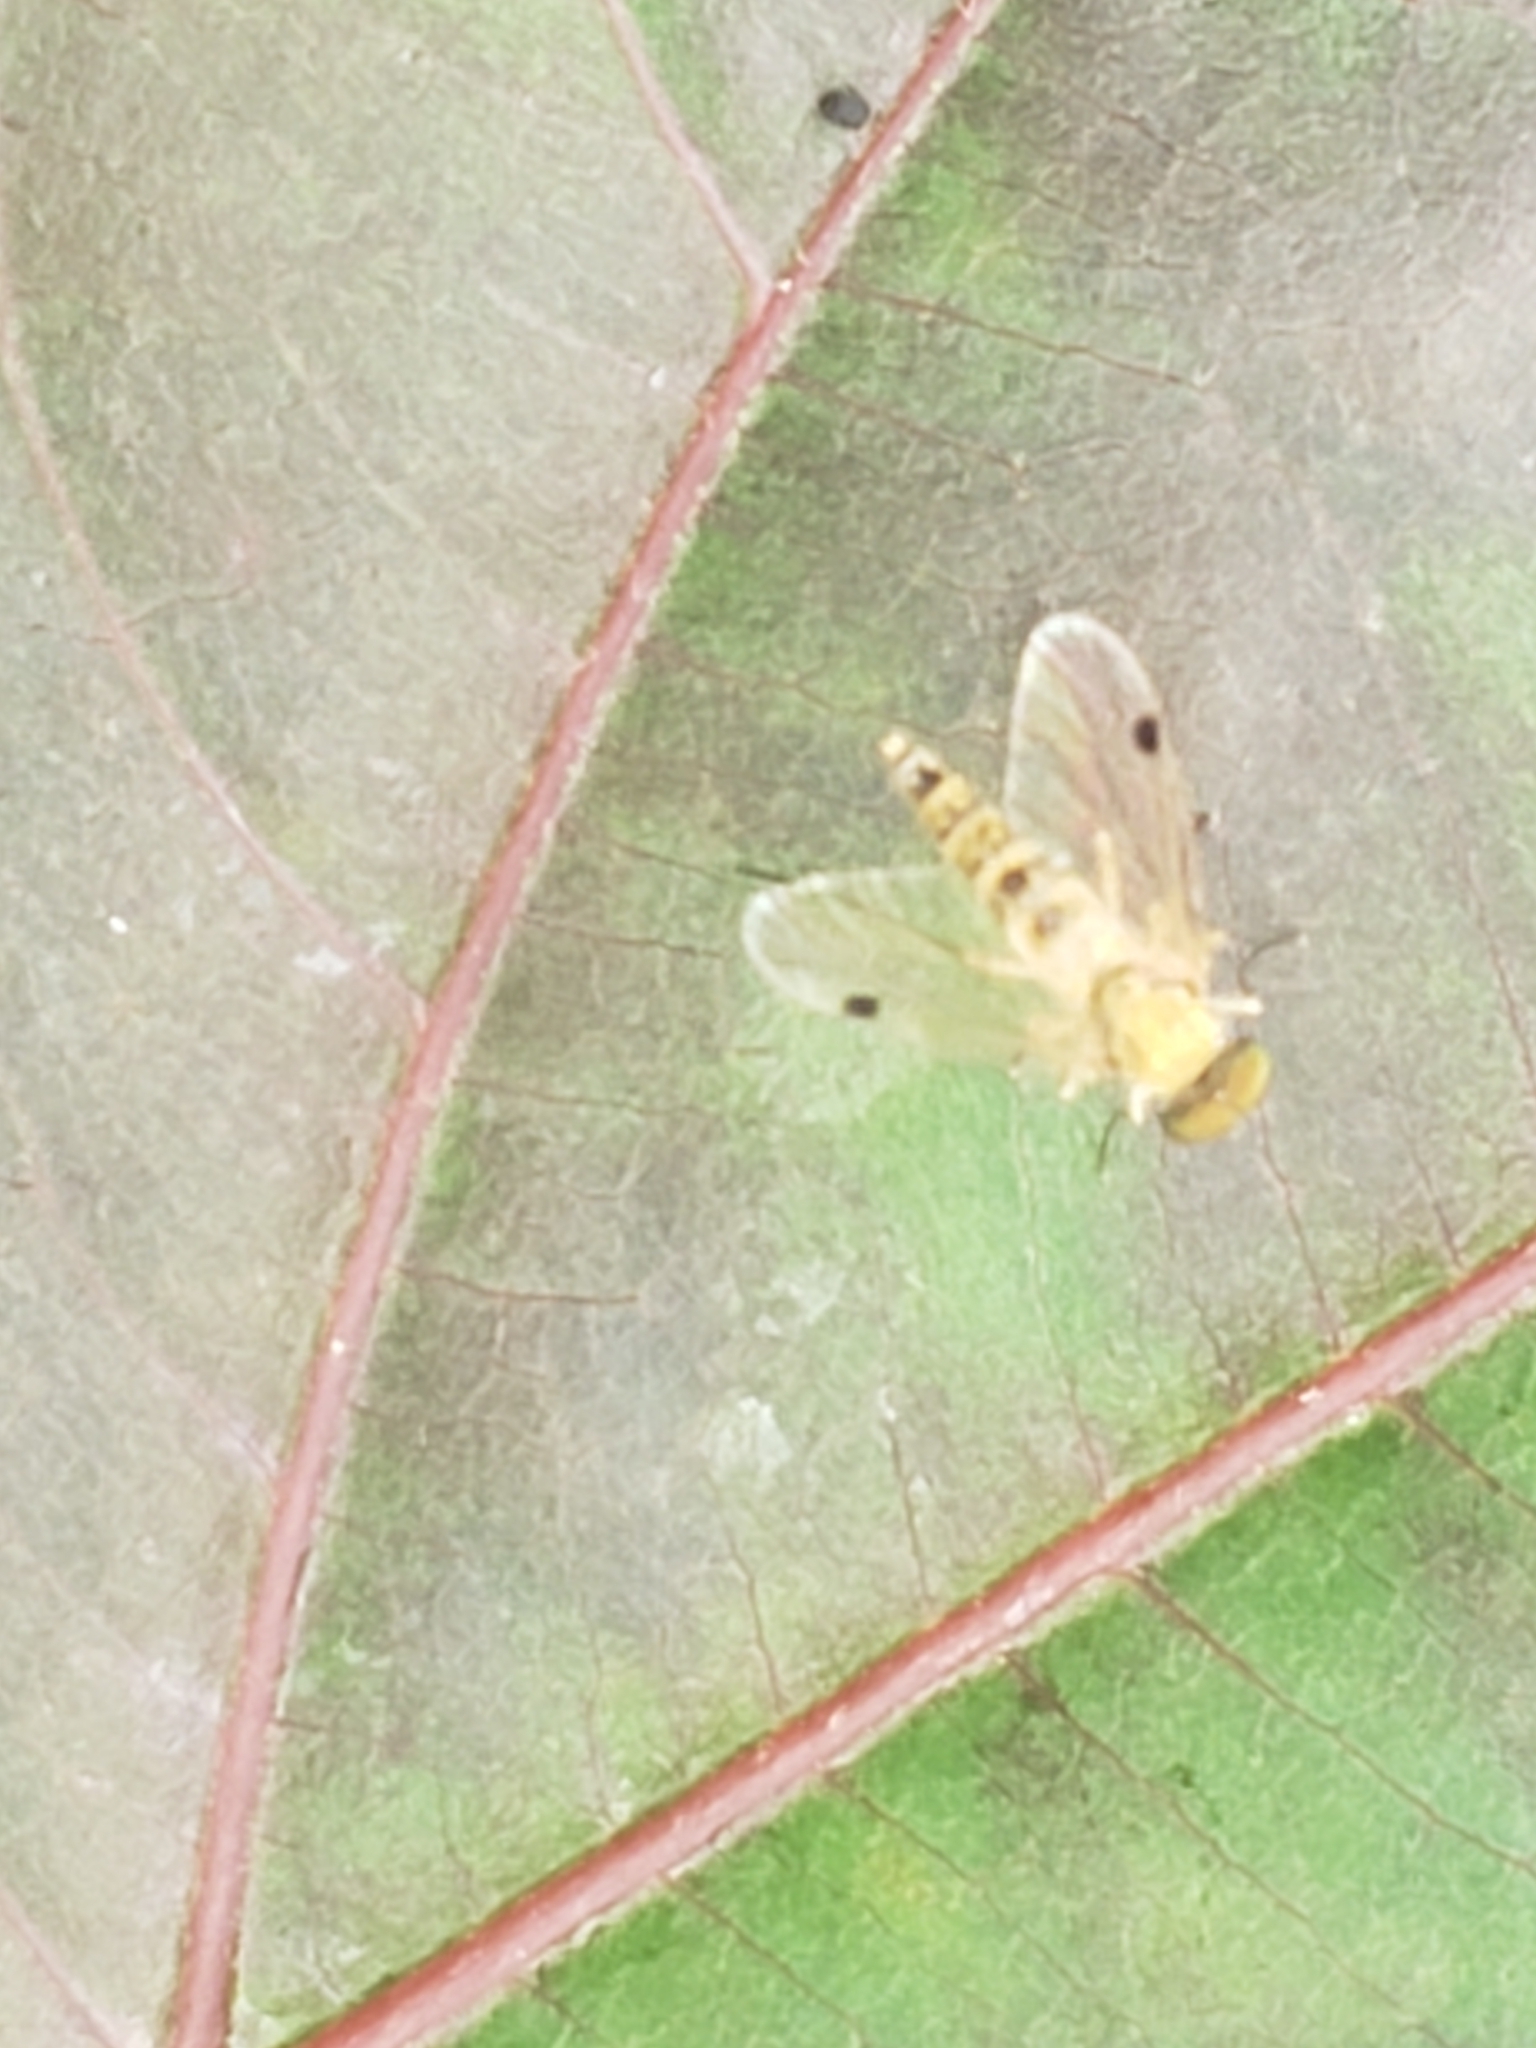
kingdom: Animalia
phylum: Arthropoda
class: Insecta
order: Diptera
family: Rhagionidae
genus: Chrysopilus
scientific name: Chrysopilus modestus
